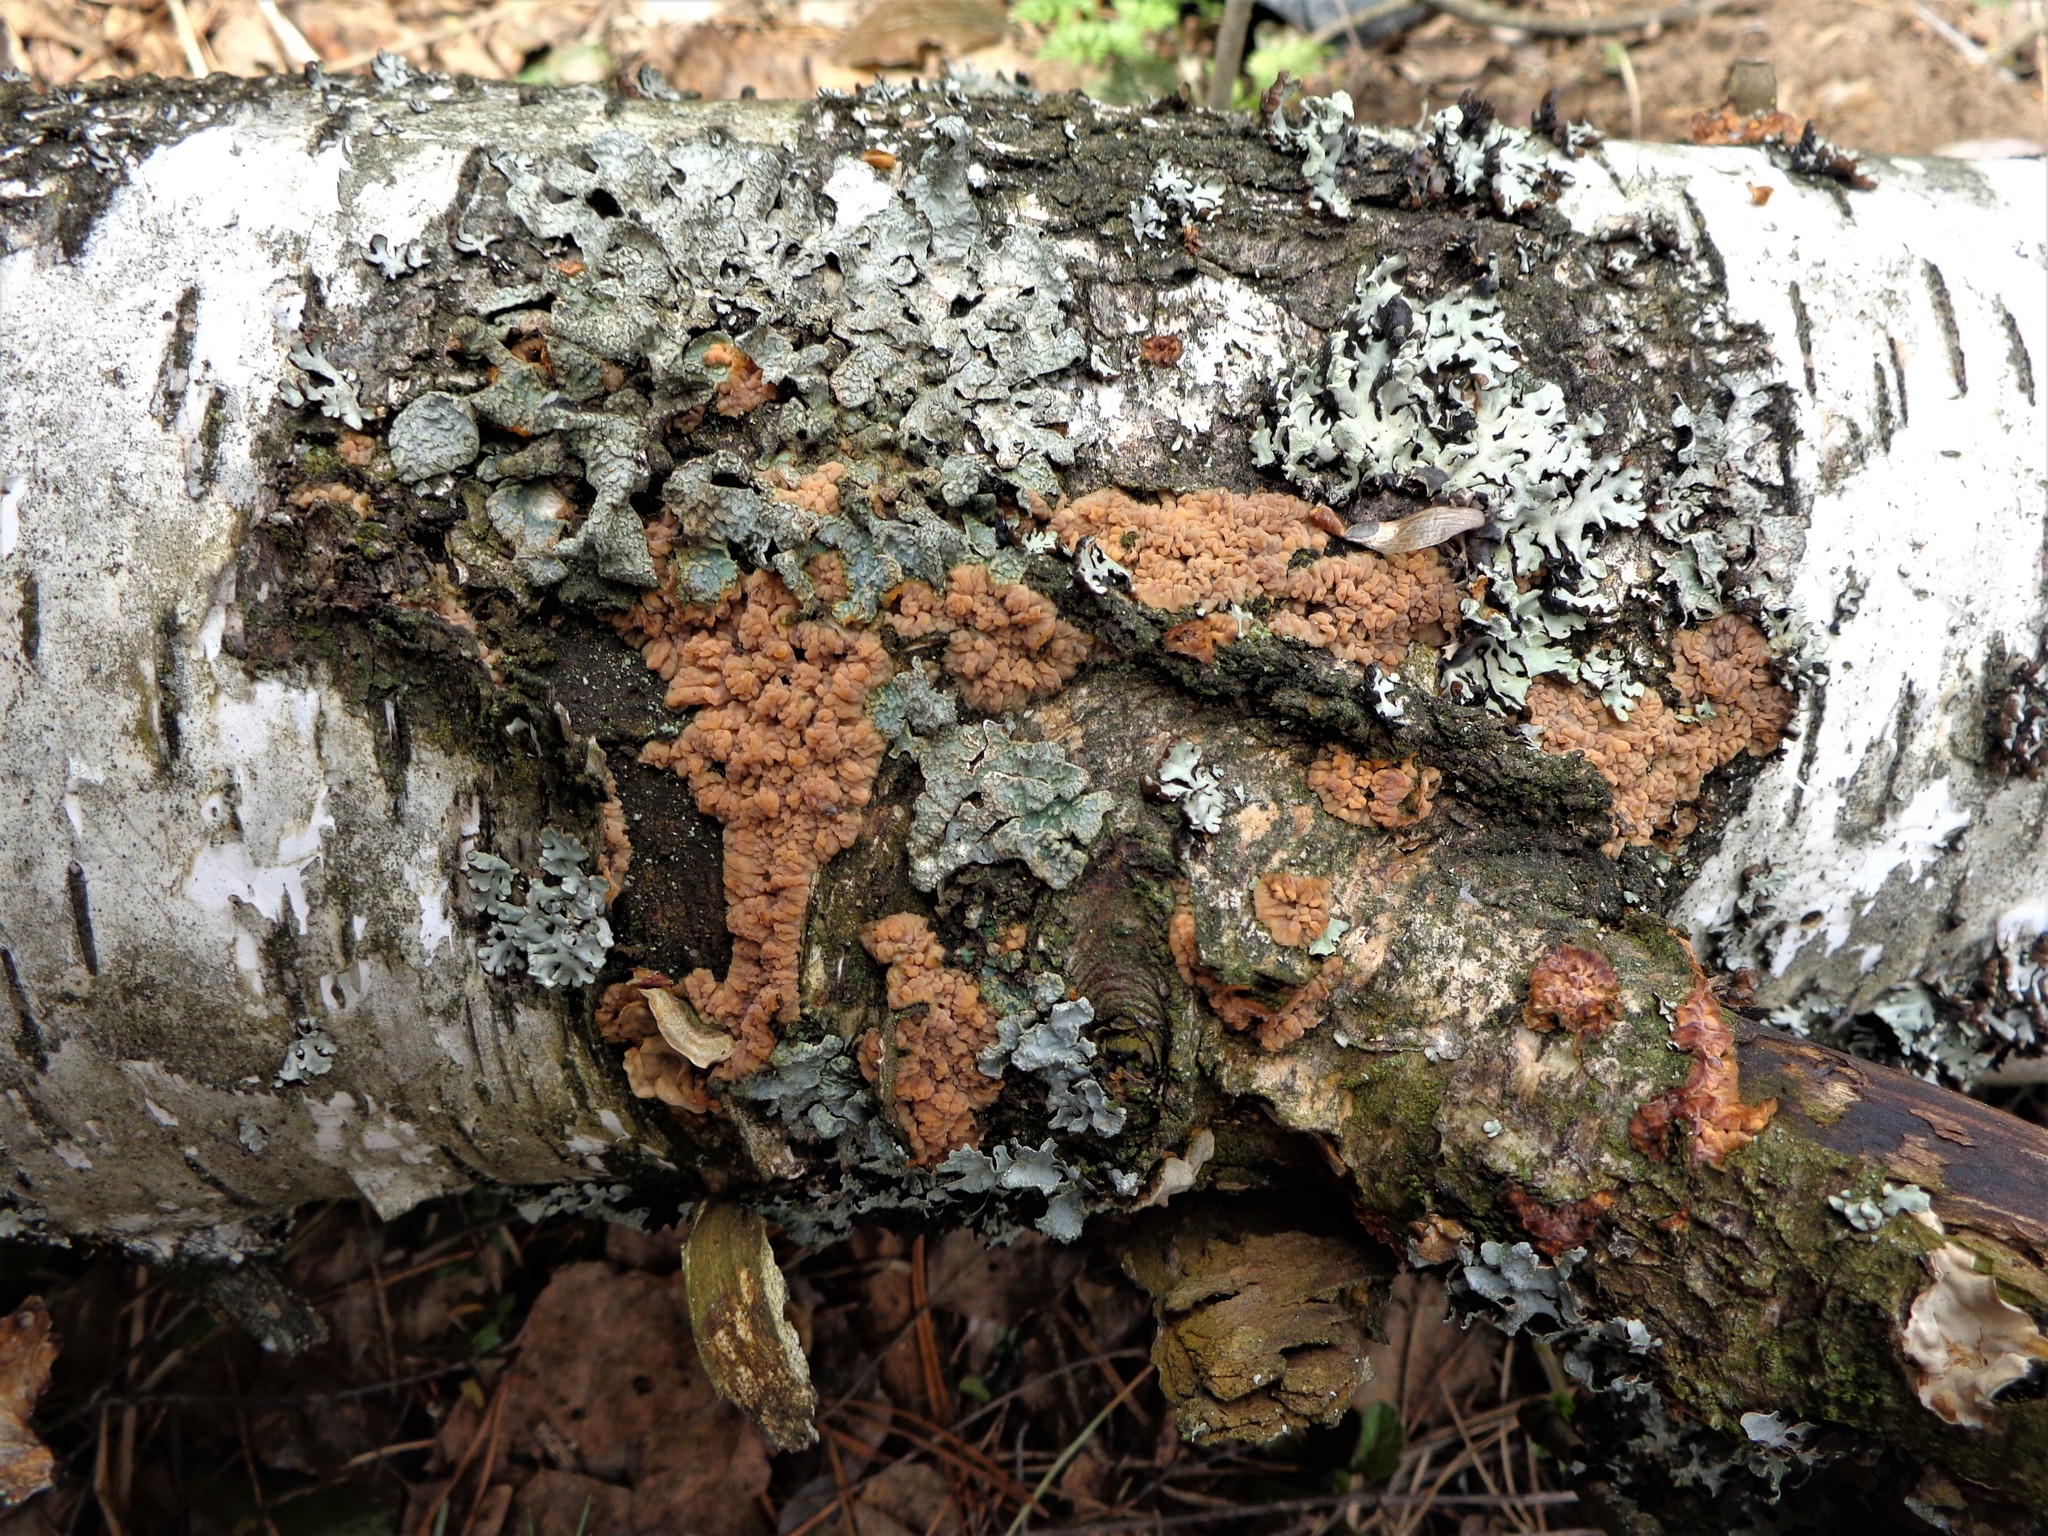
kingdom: Fungi
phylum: Basidiomycota
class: Agaricomycetes
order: Polyporales
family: Meruliaceae
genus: Phlebia
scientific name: Phlebia radiata
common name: Wrinkled crust
